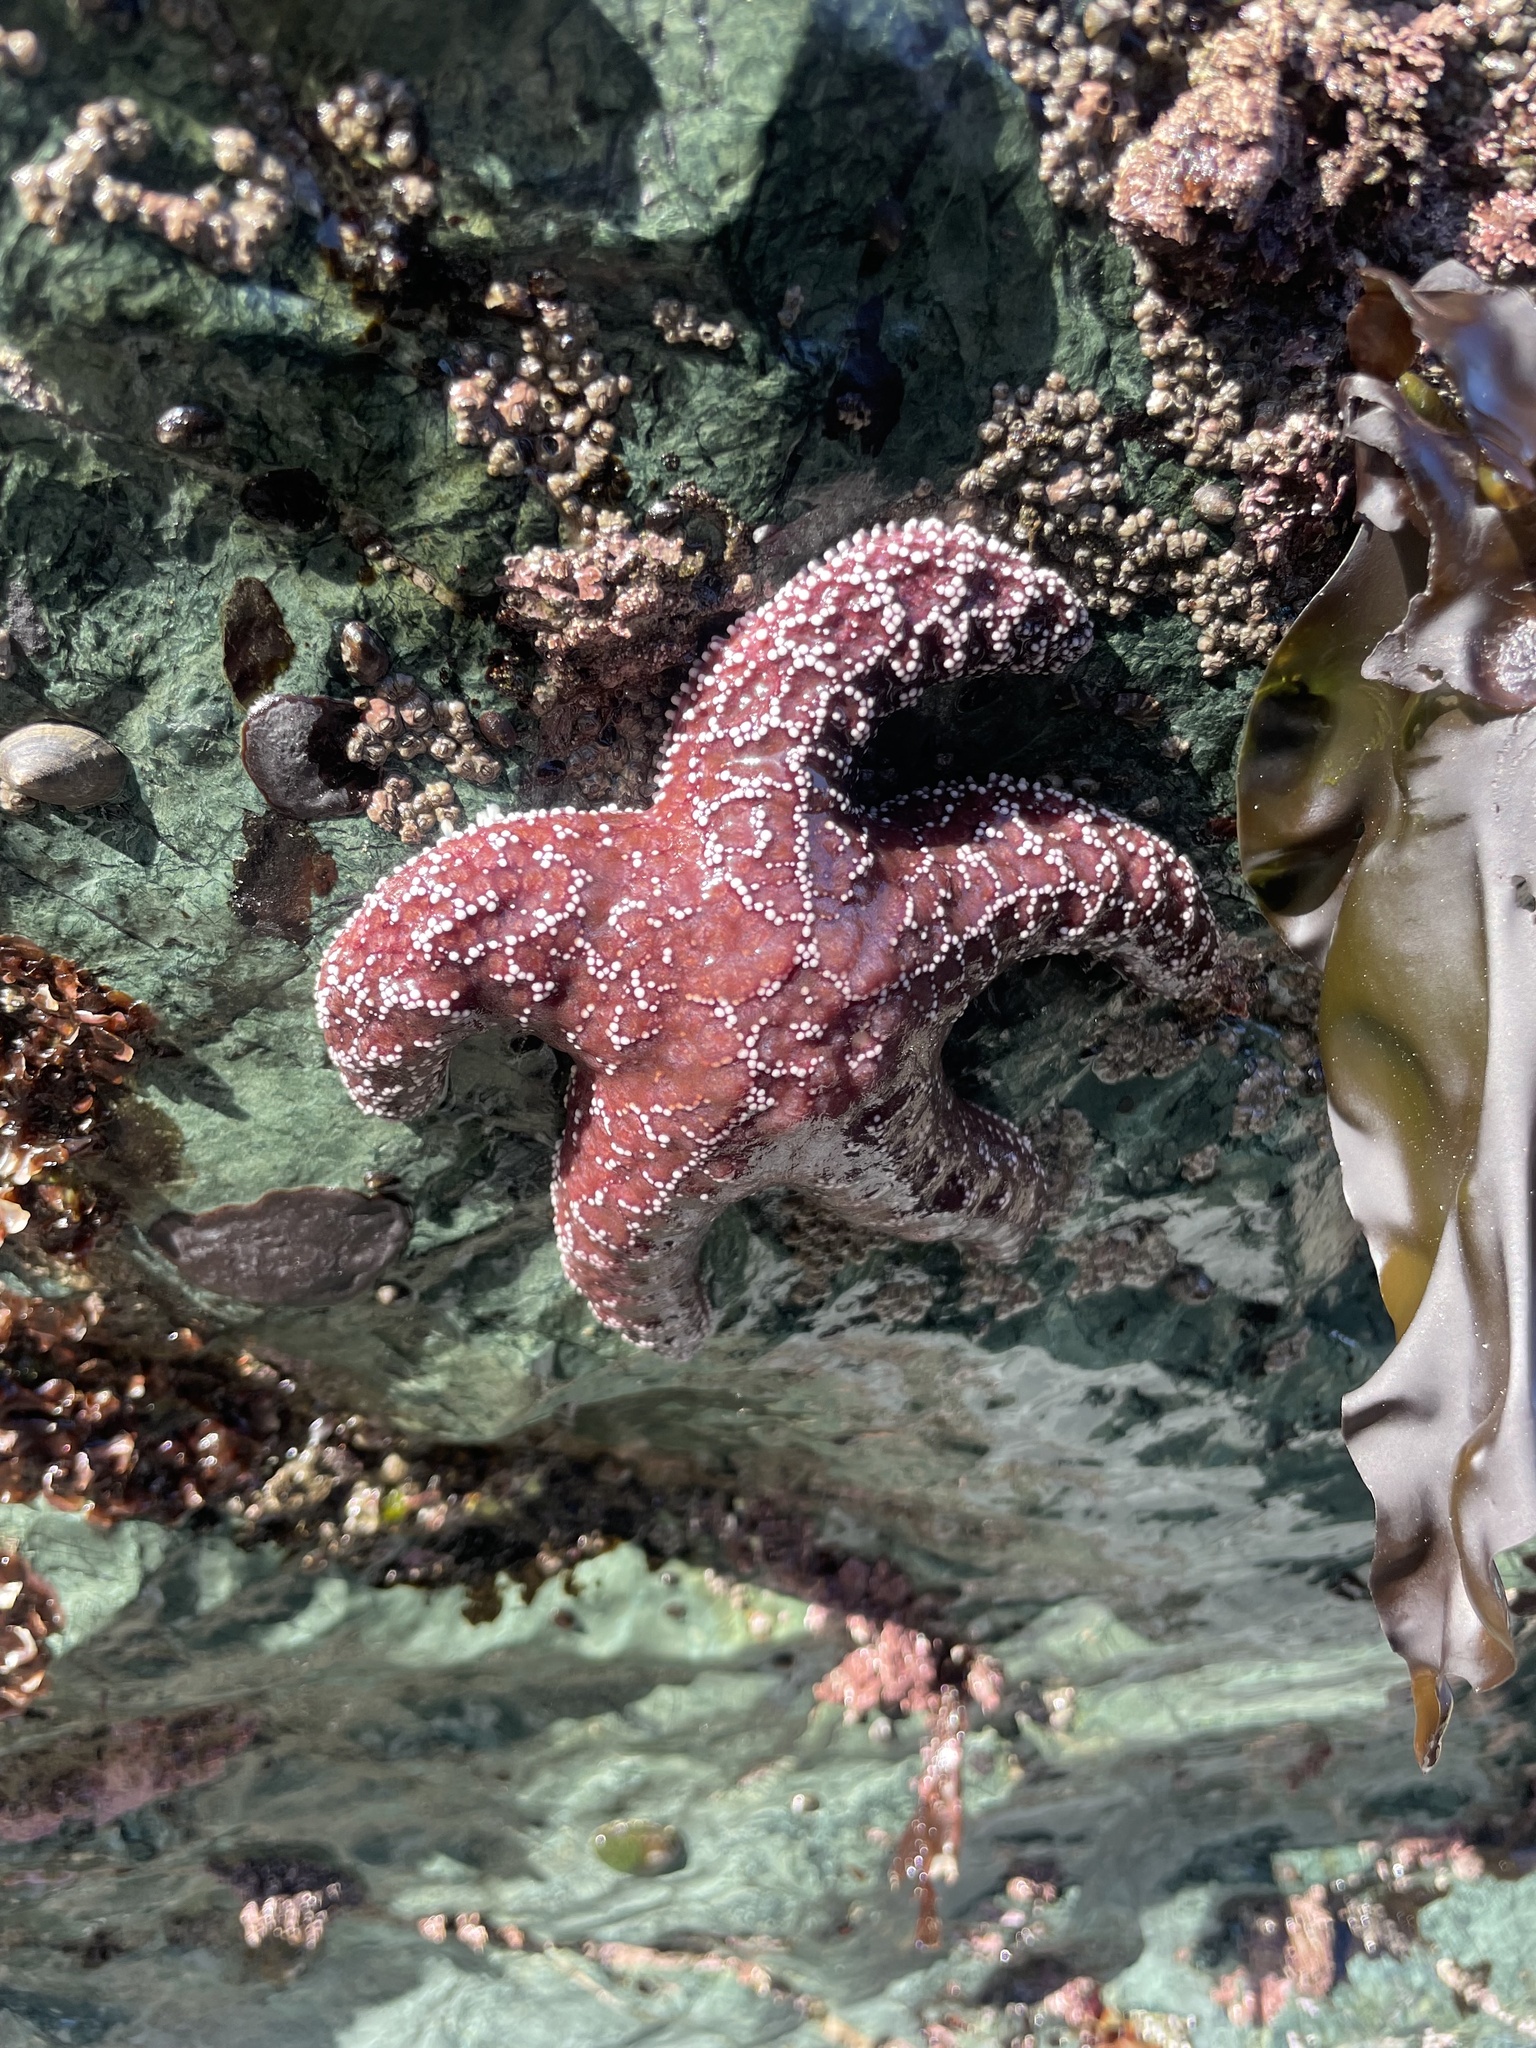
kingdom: Animalia
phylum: Echinodermata
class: Asteroidea
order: Forcipulatida
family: Asteriidae
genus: Pisaster
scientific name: Pisaster ochraceus
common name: Ochre stars
